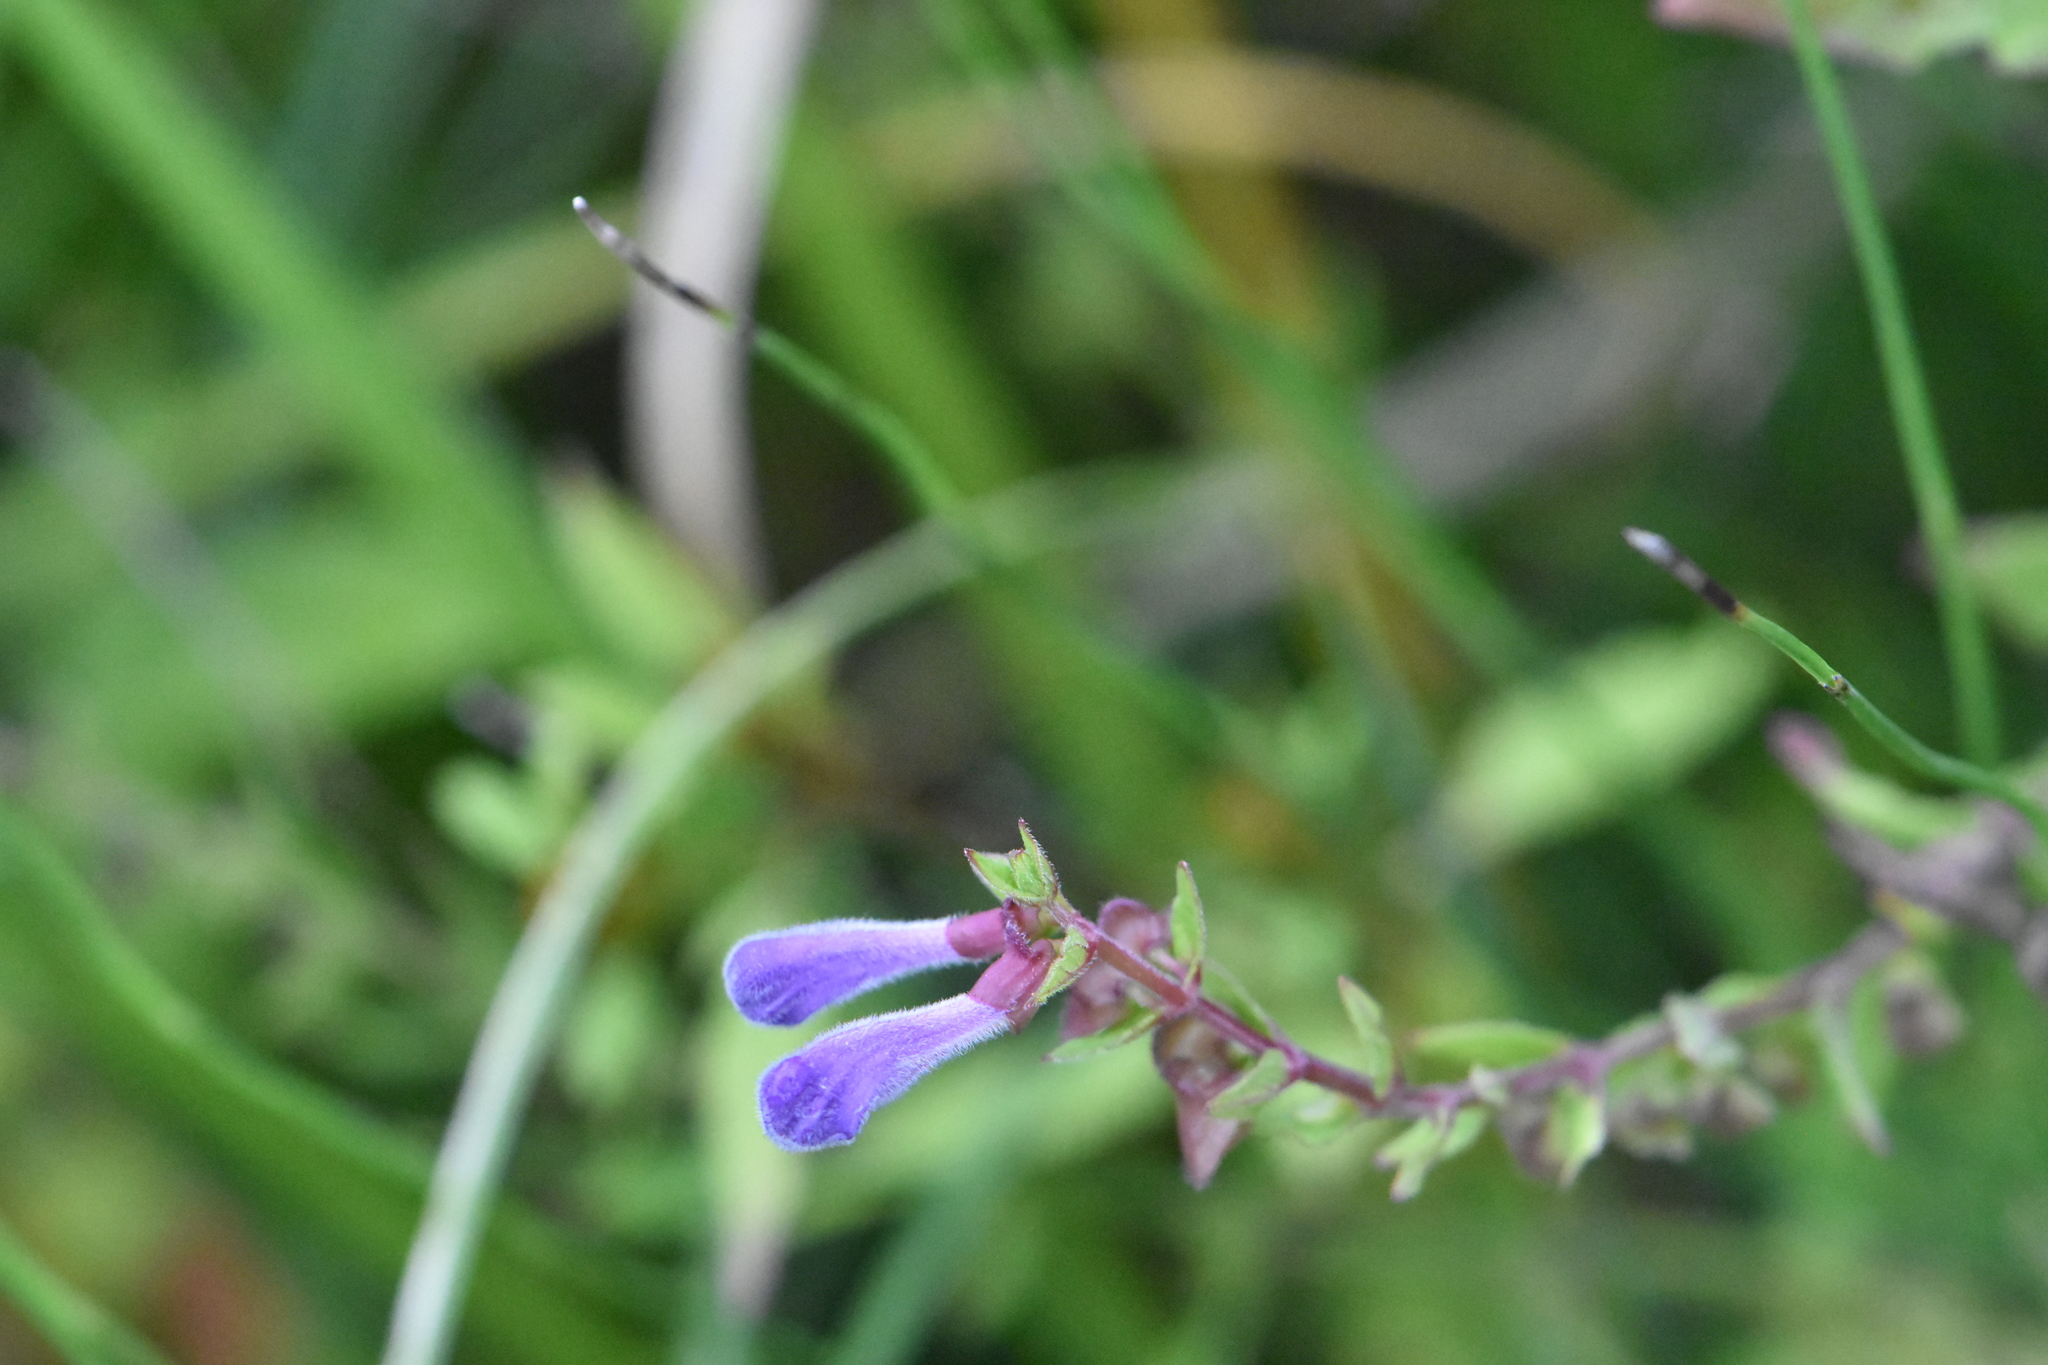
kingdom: Plantae
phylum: Tracheophyta
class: Magnoliopsida
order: Lamiales
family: Lamiaceae
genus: Scutellaria
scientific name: Scutellaria galericulata
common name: Skullcap
